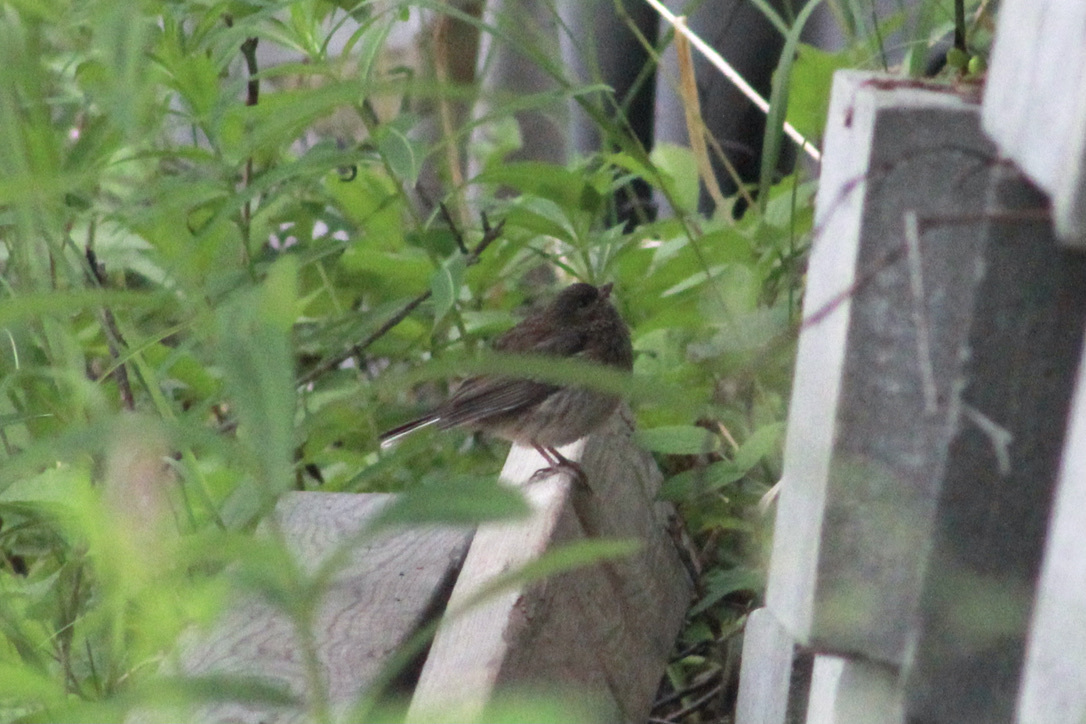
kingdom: Animalia
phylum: Chordata
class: Aves
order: Passeriformes
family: Passerellidae
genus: Junco
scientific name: Junco hyemalis
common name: Dark-eyed junco
